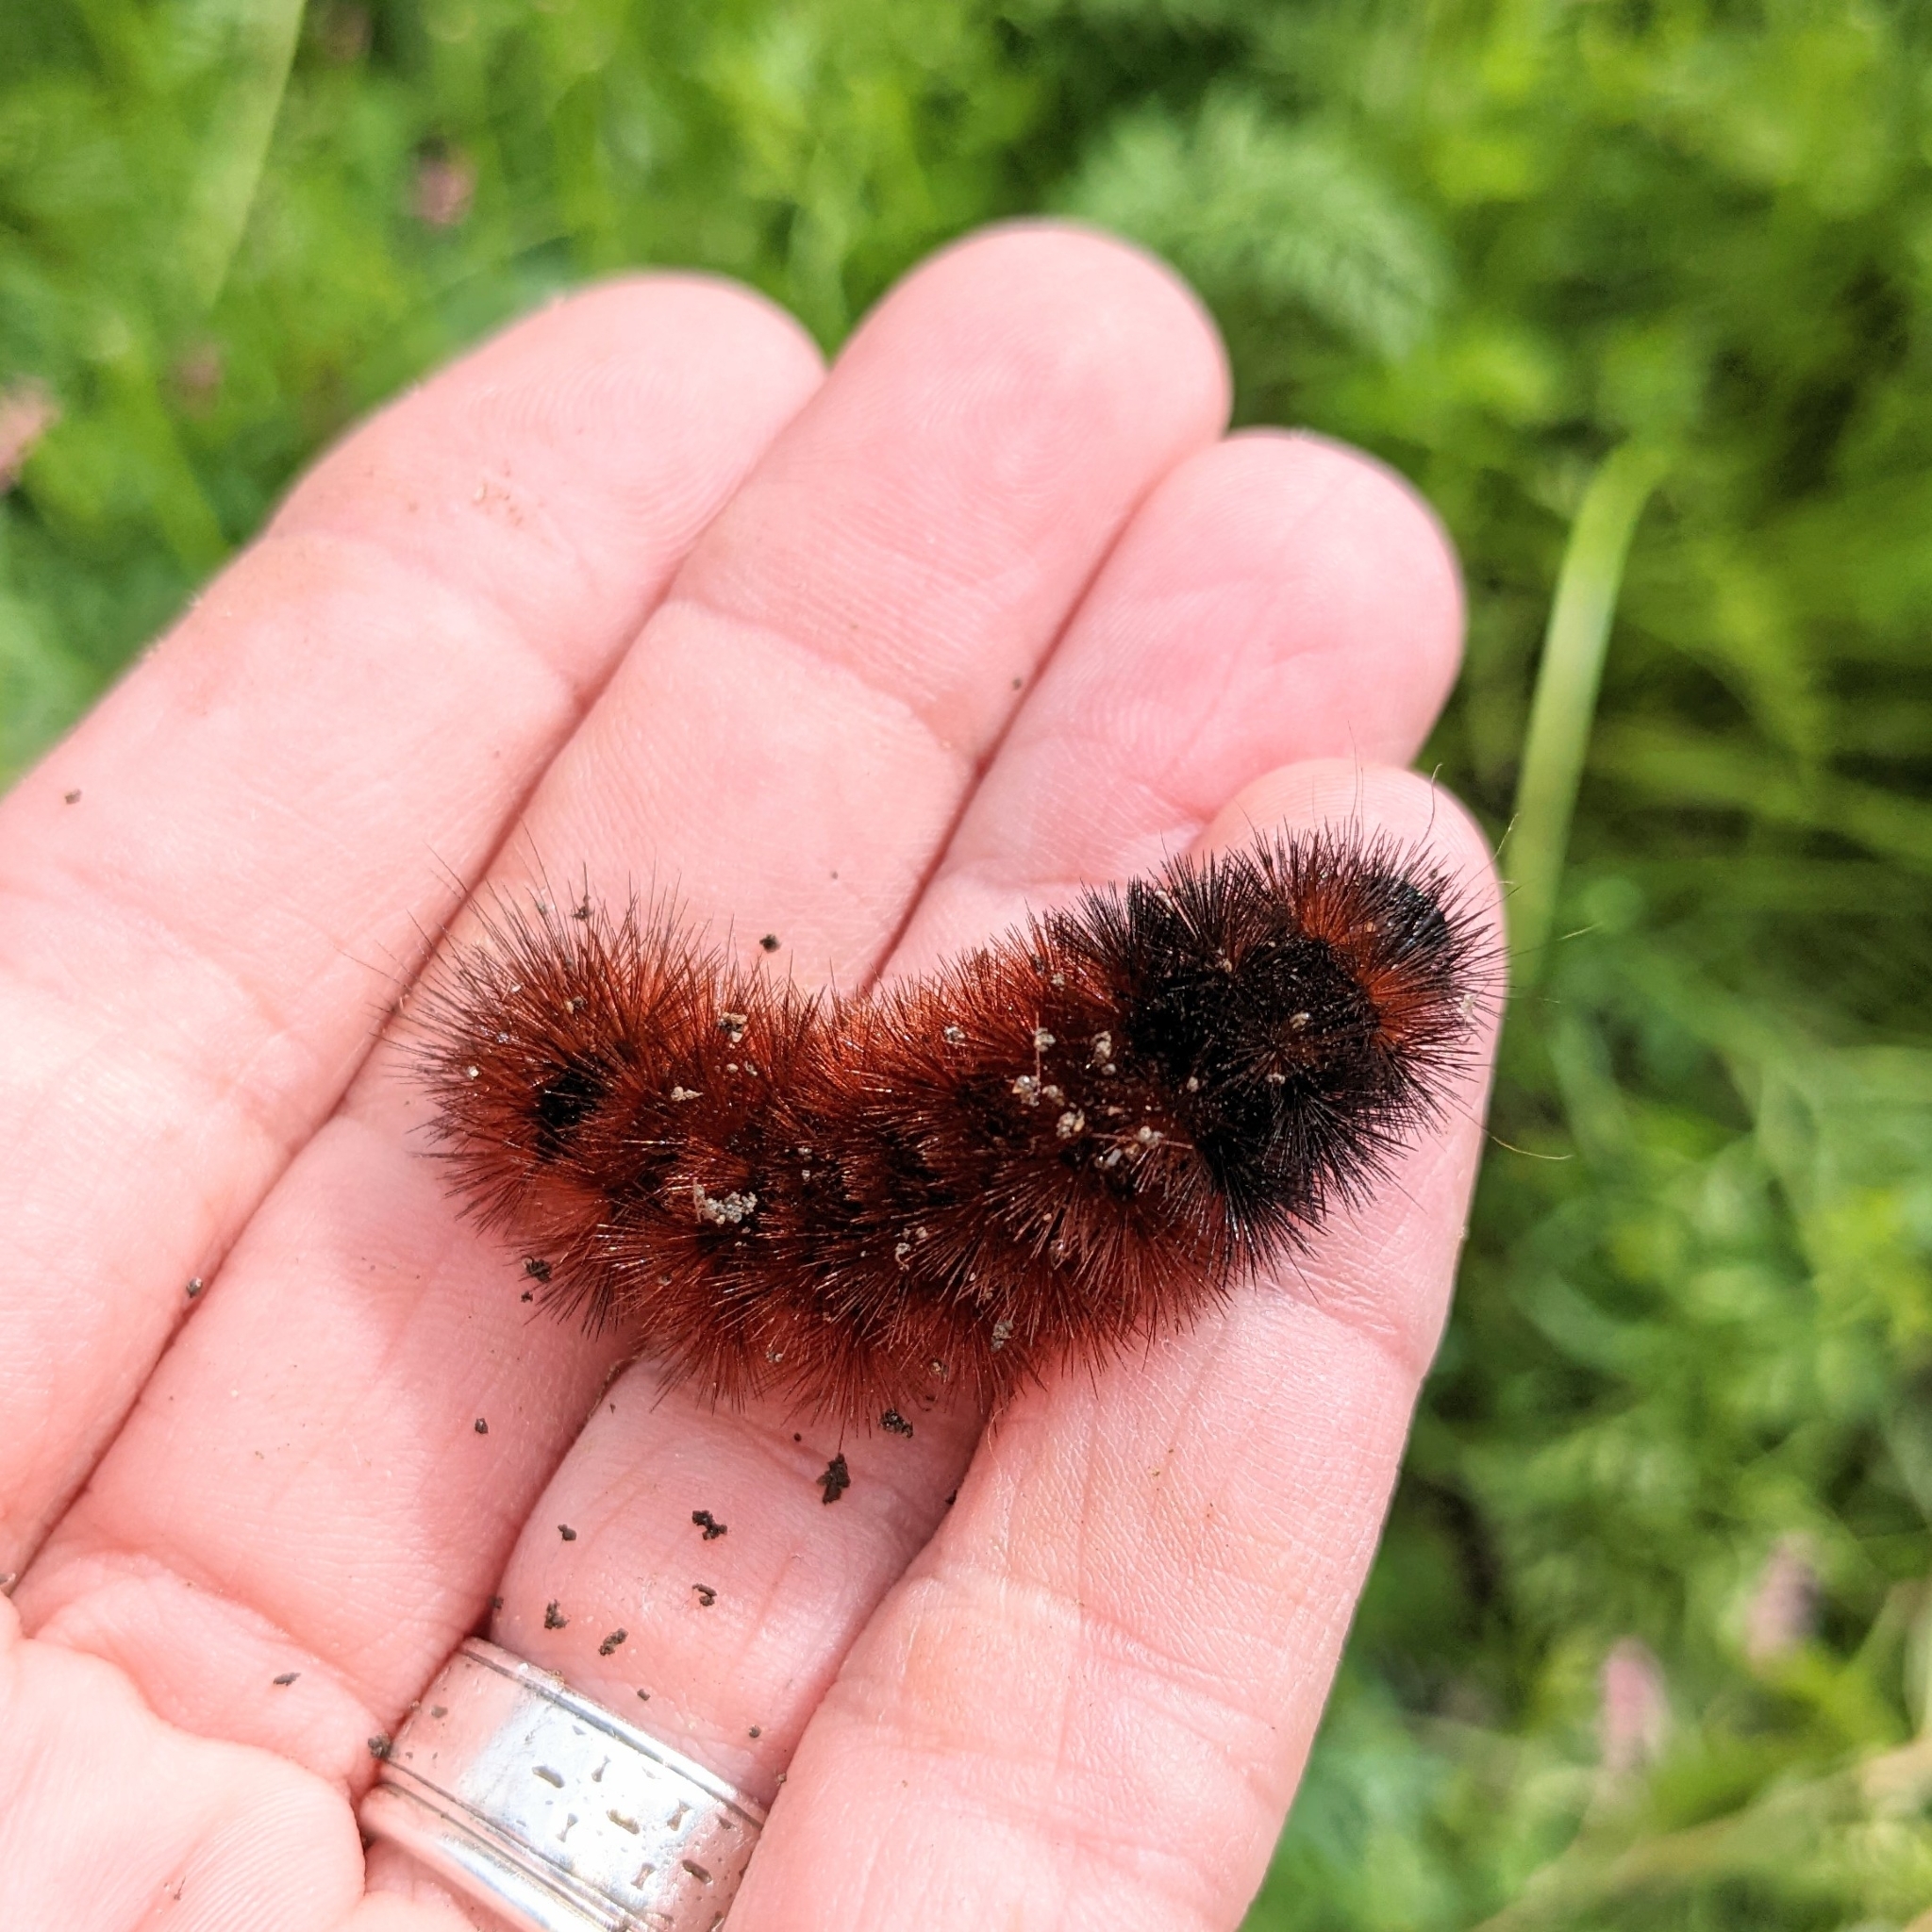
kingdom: Animalia
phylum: Arthropoda
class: Insecta
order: Lepidoptera
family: Erebidae
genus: Pyrrharctia
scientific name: Pyrrharctia isabella
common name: Isabella tiger moth
